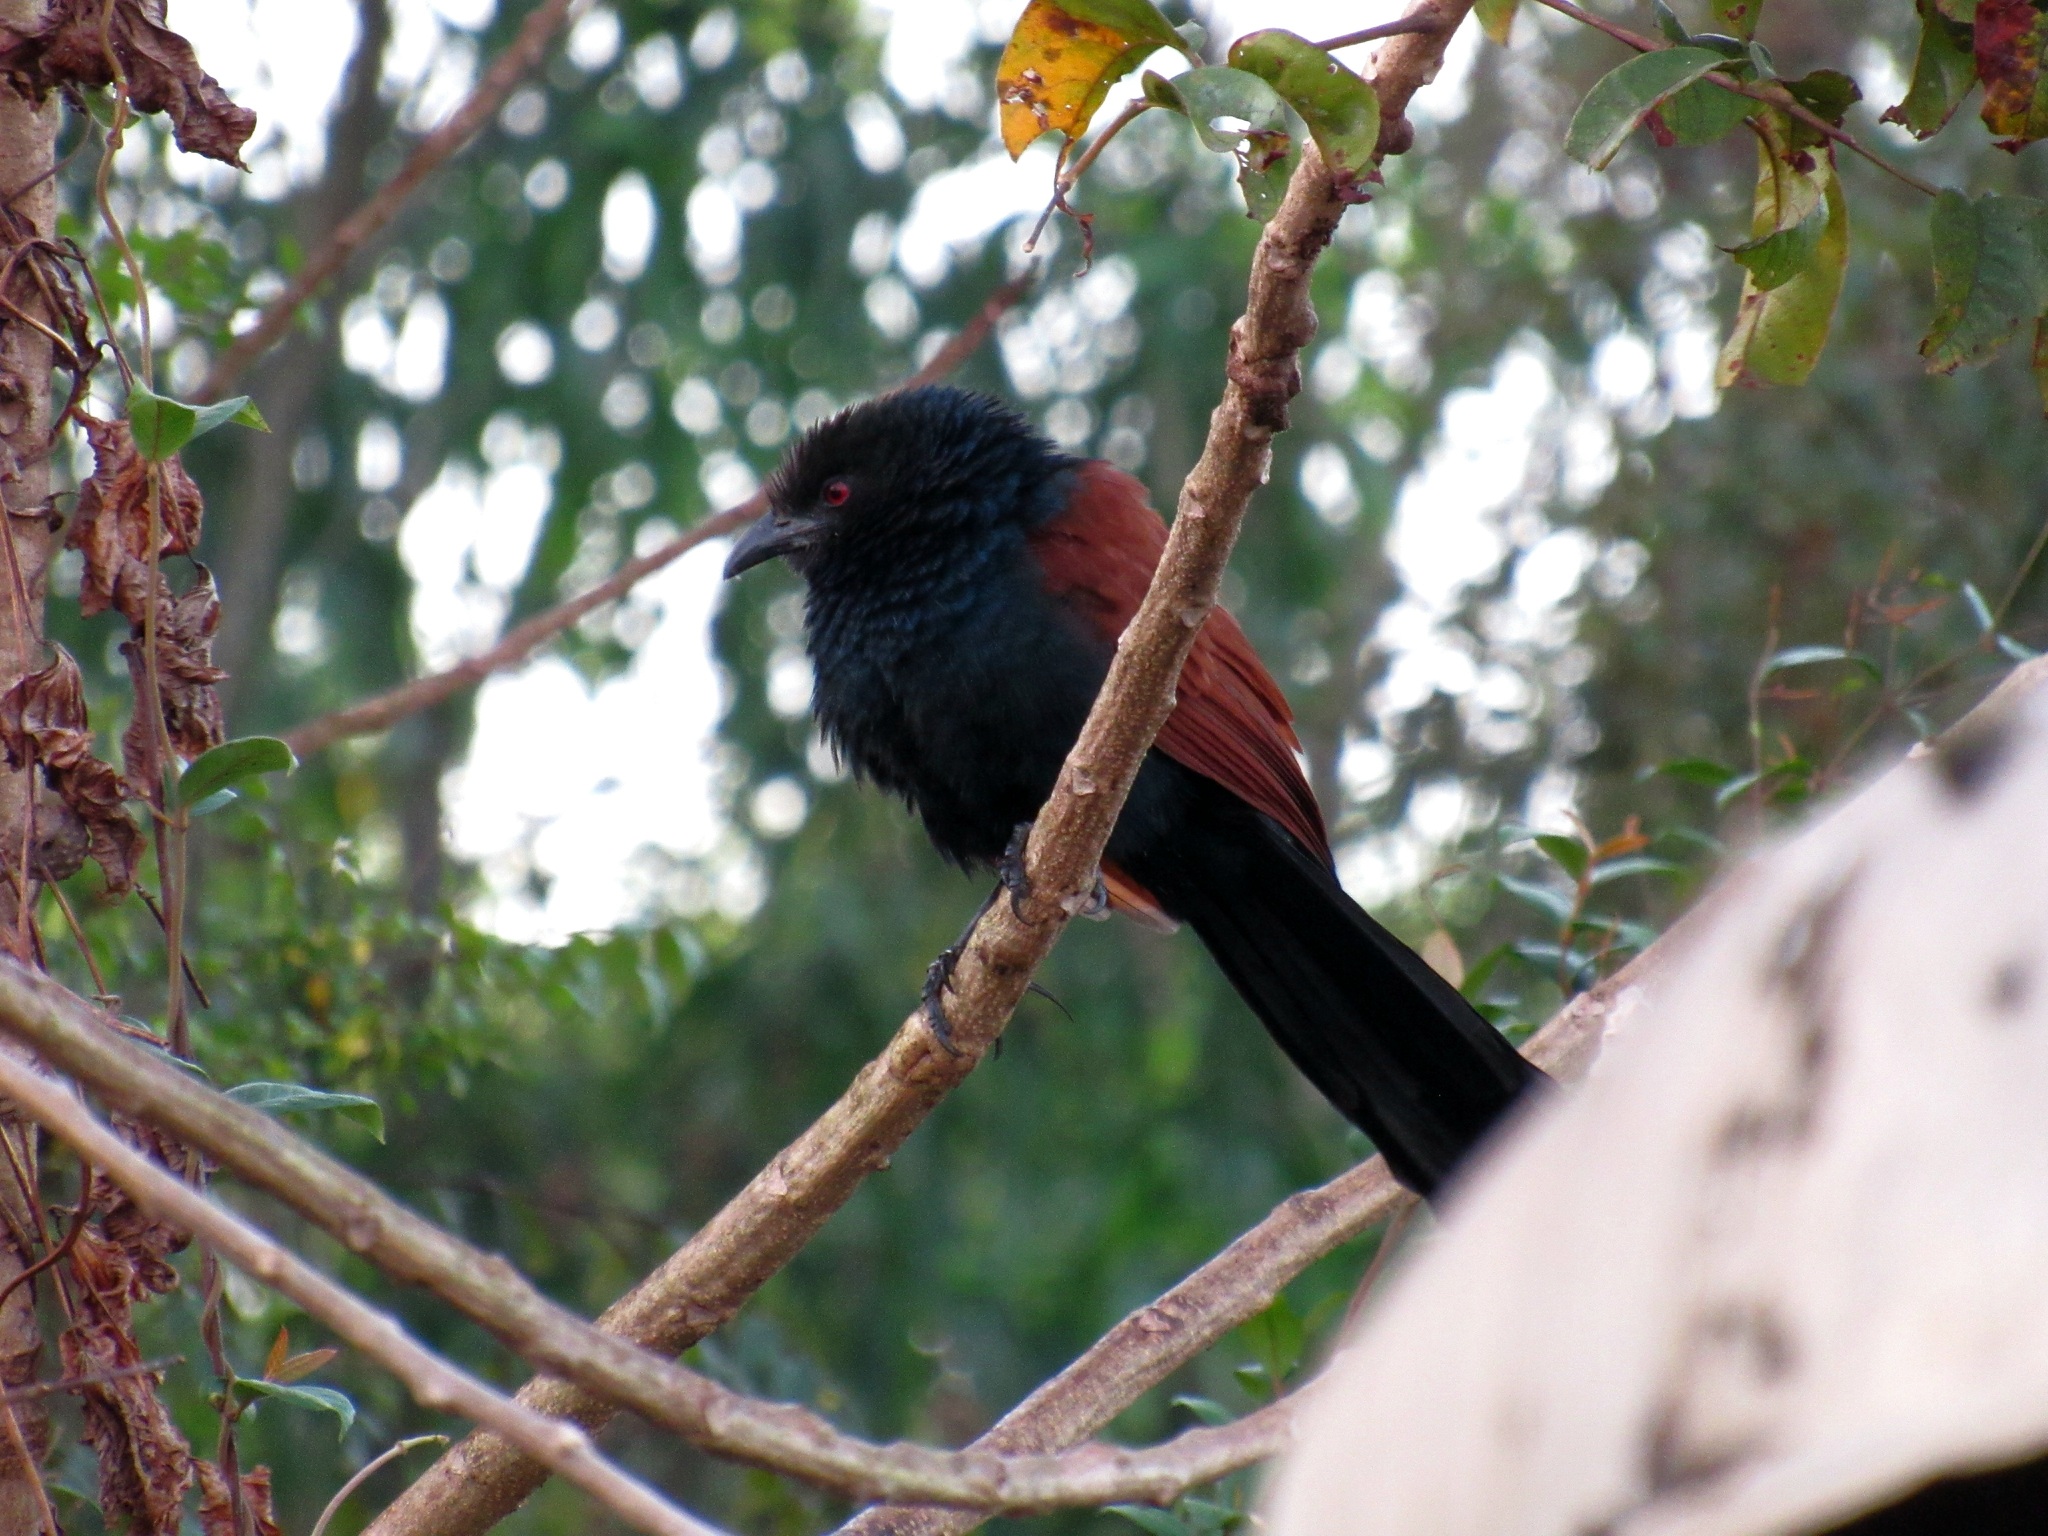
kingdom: Animalia
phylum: Chordata
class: Aves
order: Cuculiformes
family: Cuculidae
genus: Centropus
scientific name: Centropus sinensis
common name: Greater coucal
